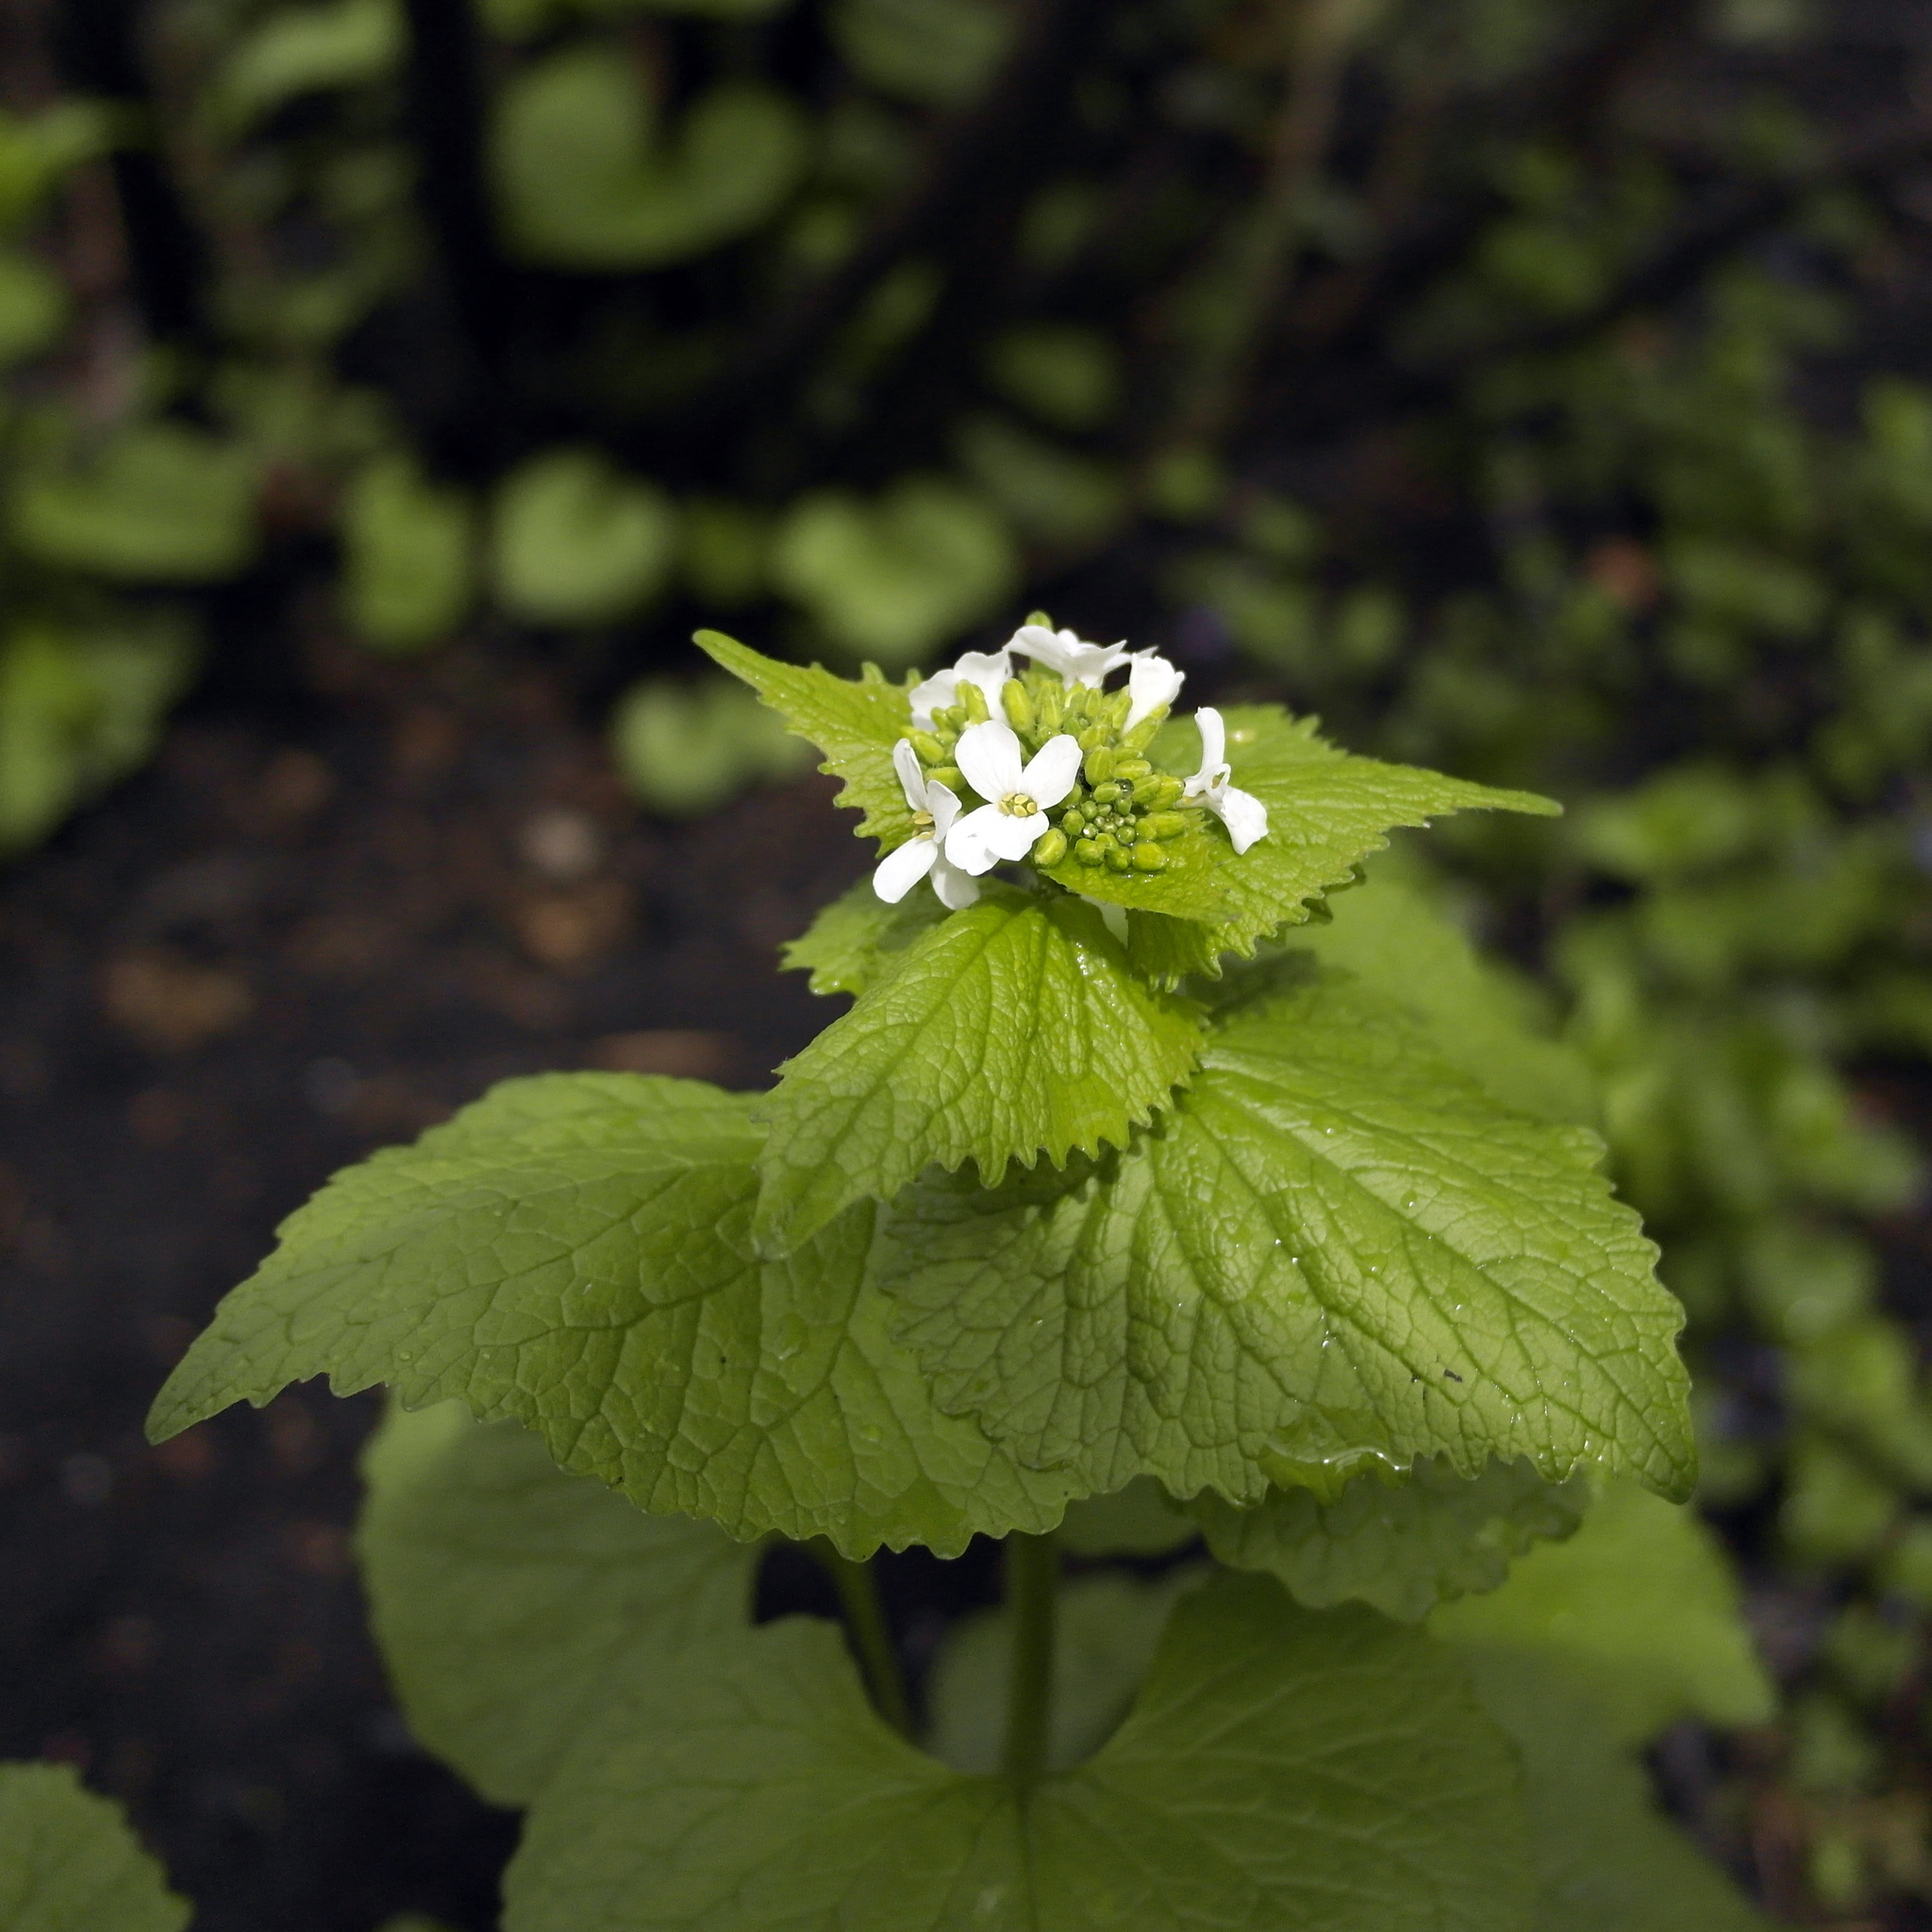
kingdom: Plantae
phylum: Tracheophyta
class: Magnoliopsida
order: Brassicales
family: Brassicaceae
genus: Alliaria
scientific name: Alliaria petiolata
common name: Garlic mustard
